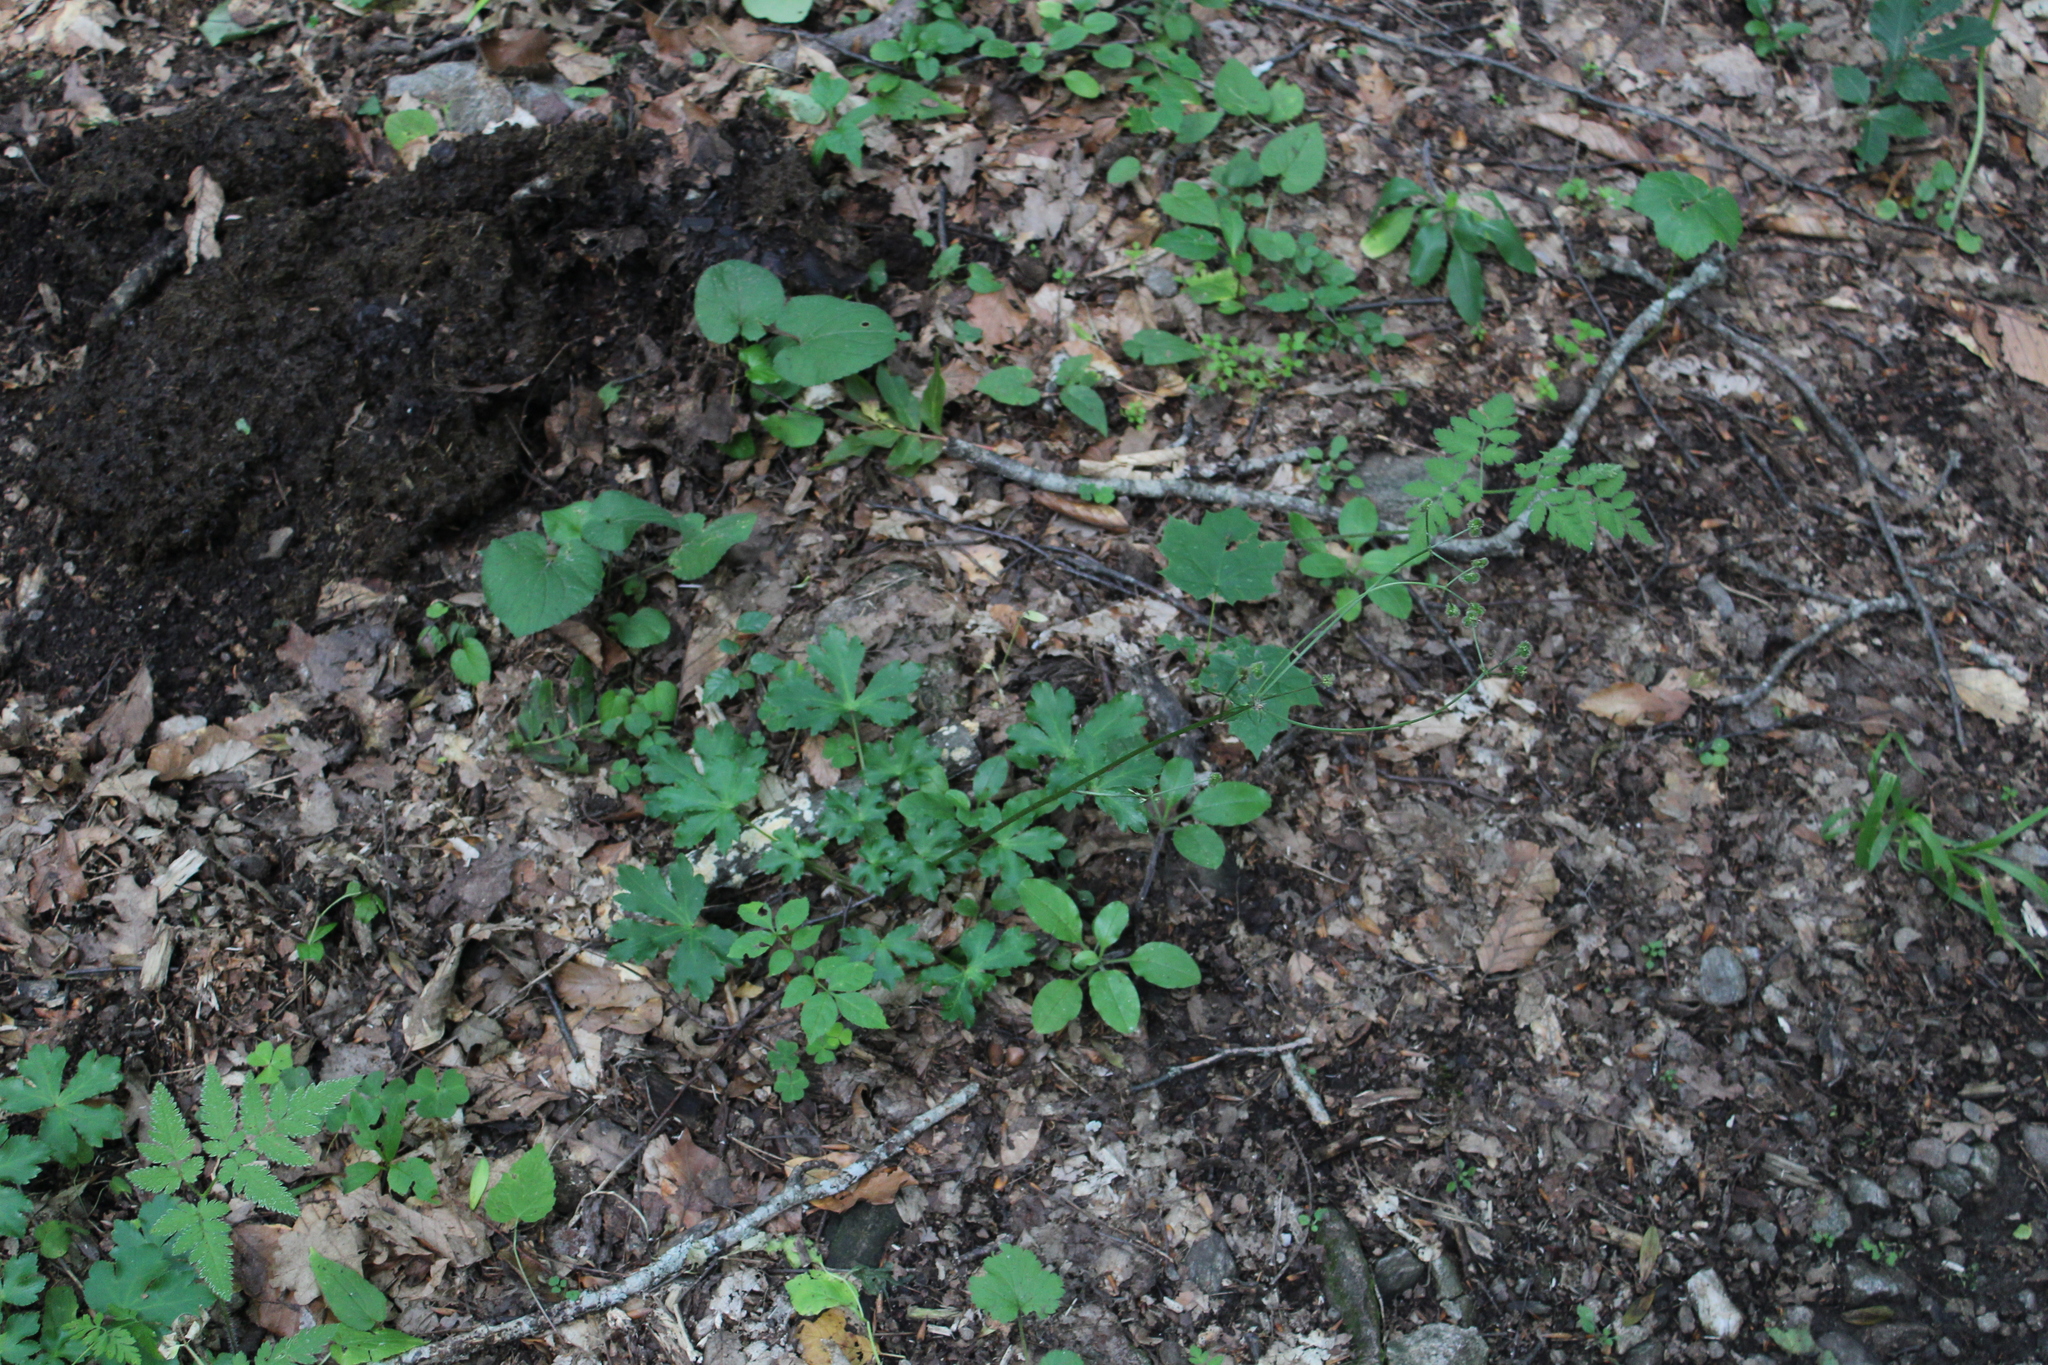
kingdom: Plantae
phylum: Tracheophyta
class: Magnoliopsida
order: Apiales
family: Apiaceae
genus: Sanicula
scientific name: Sanicula europaea
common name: Sanicle
